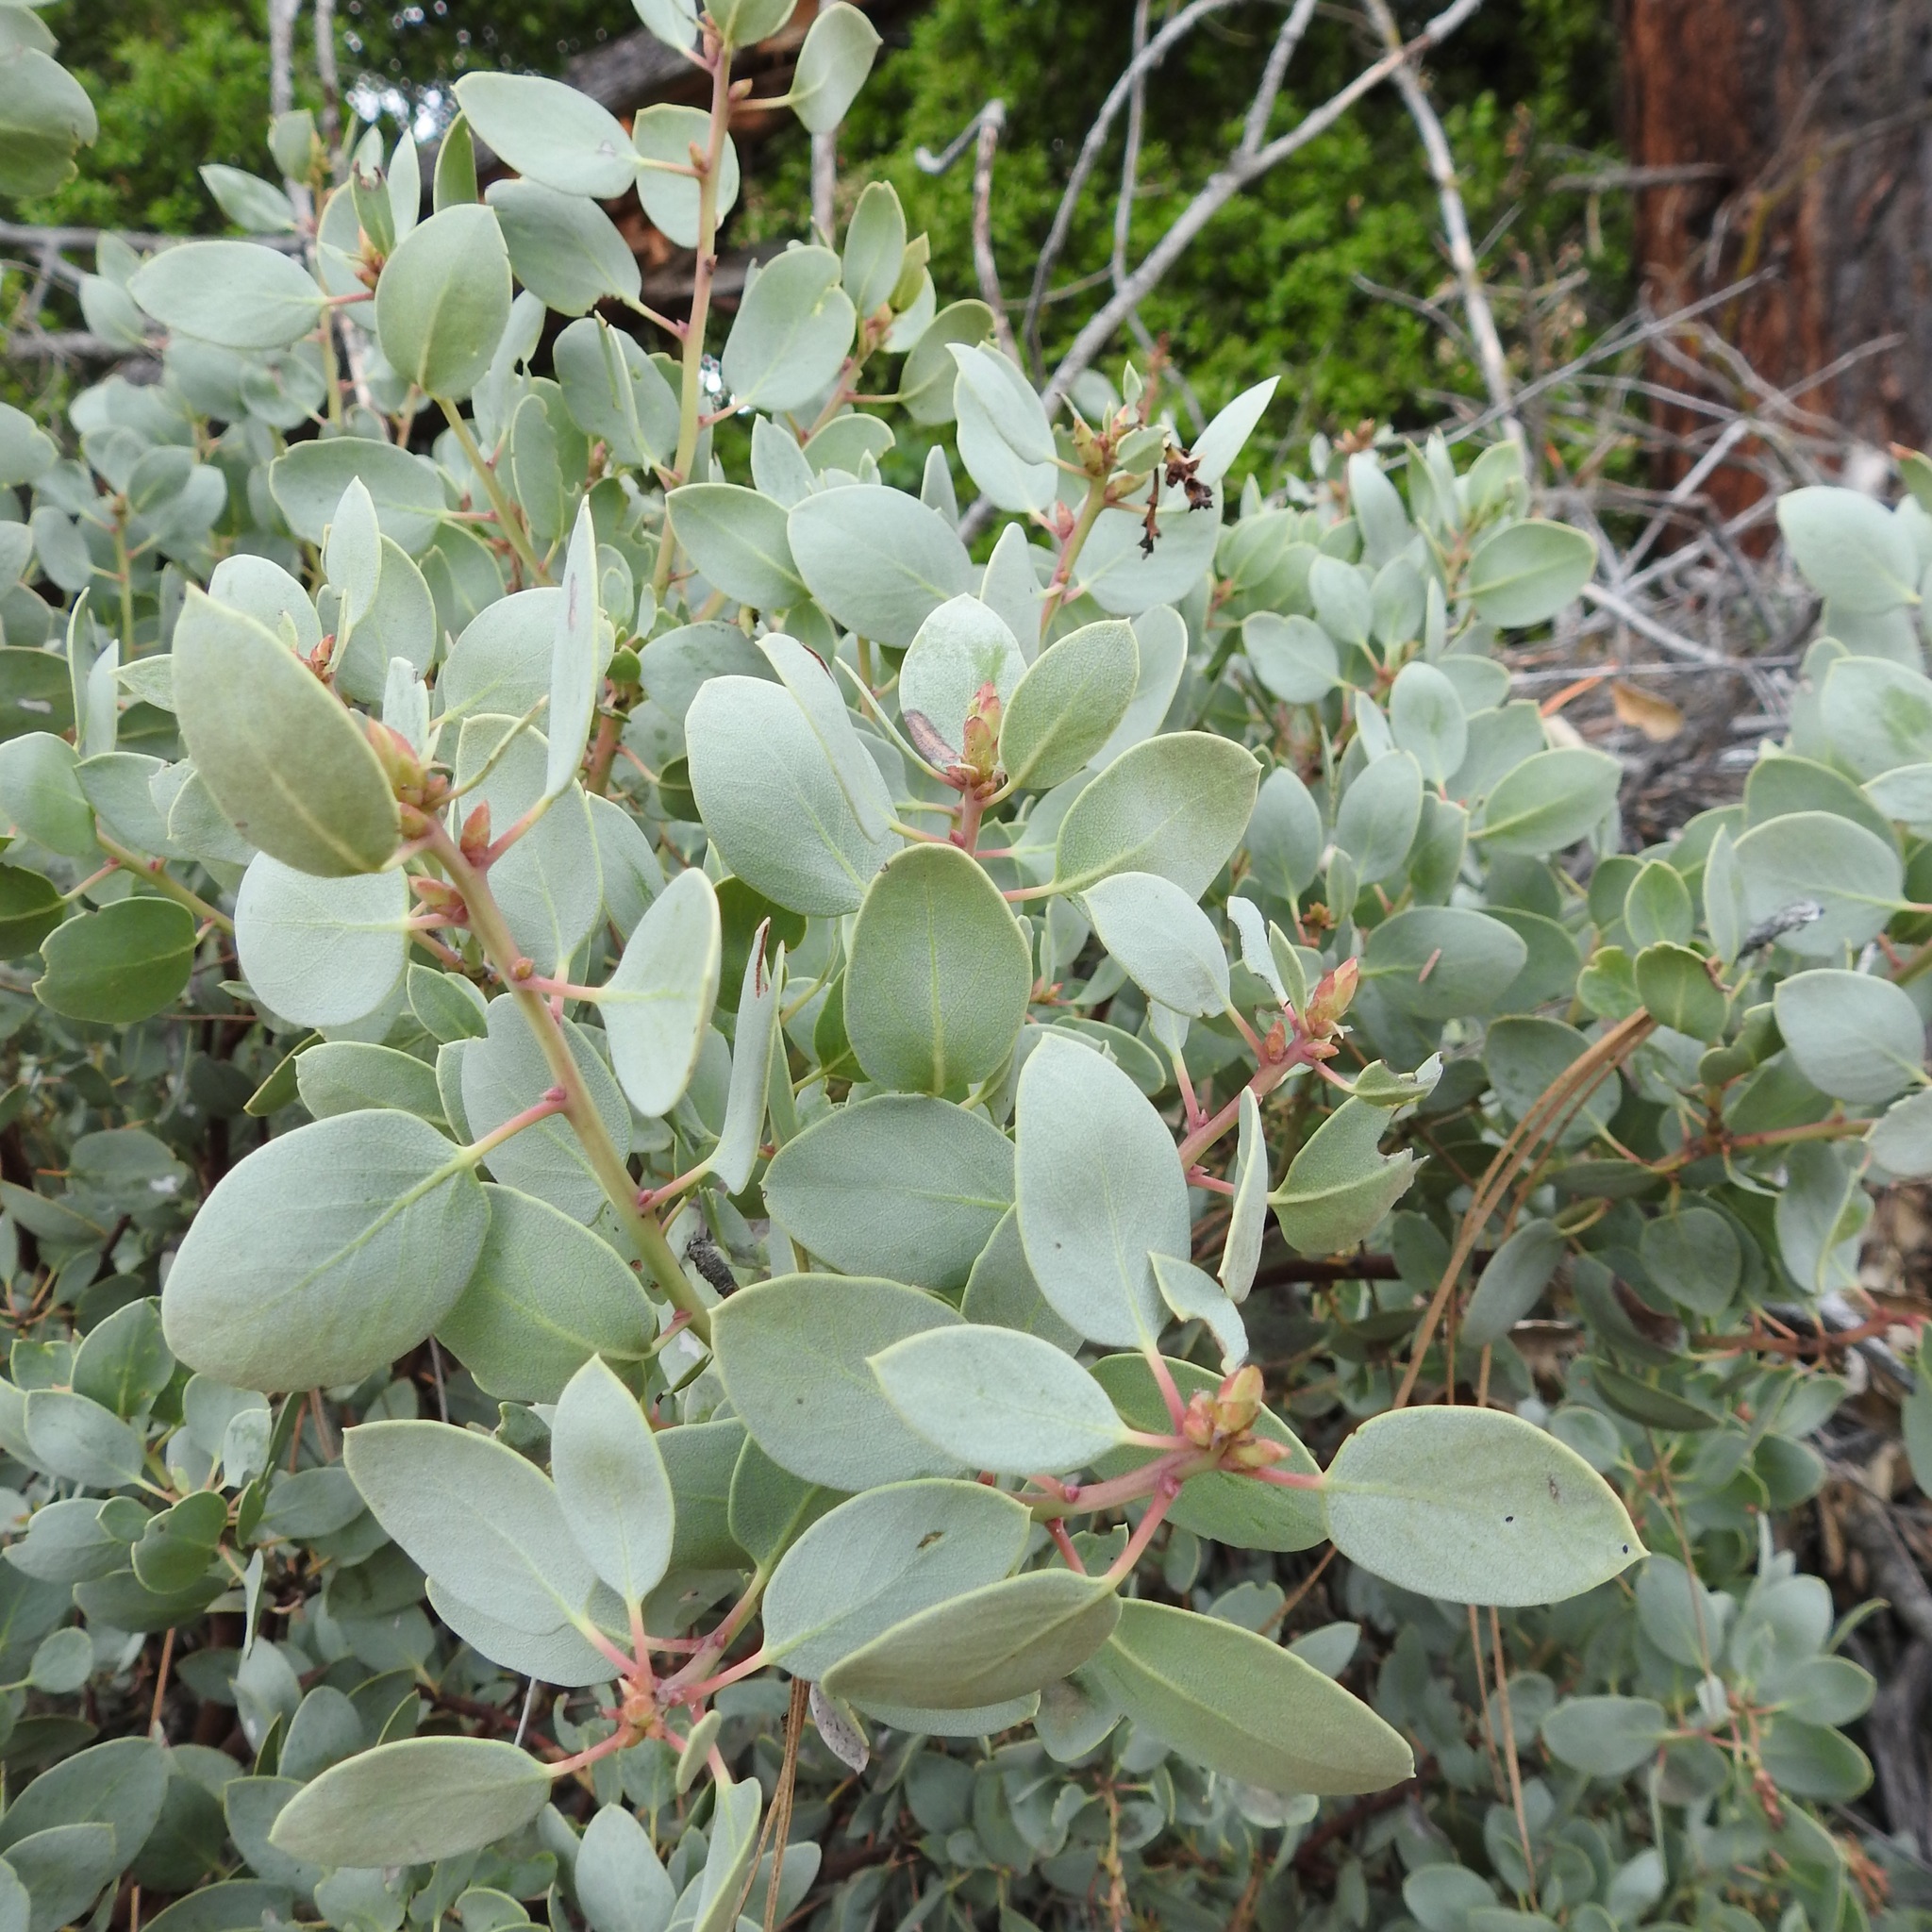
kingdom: Plantae
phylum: Tracheophyta
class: Magnoliopsida
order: Ericales
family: Ericaceae
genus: Arctostaphylos
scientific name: Arctostaphylos glauca
